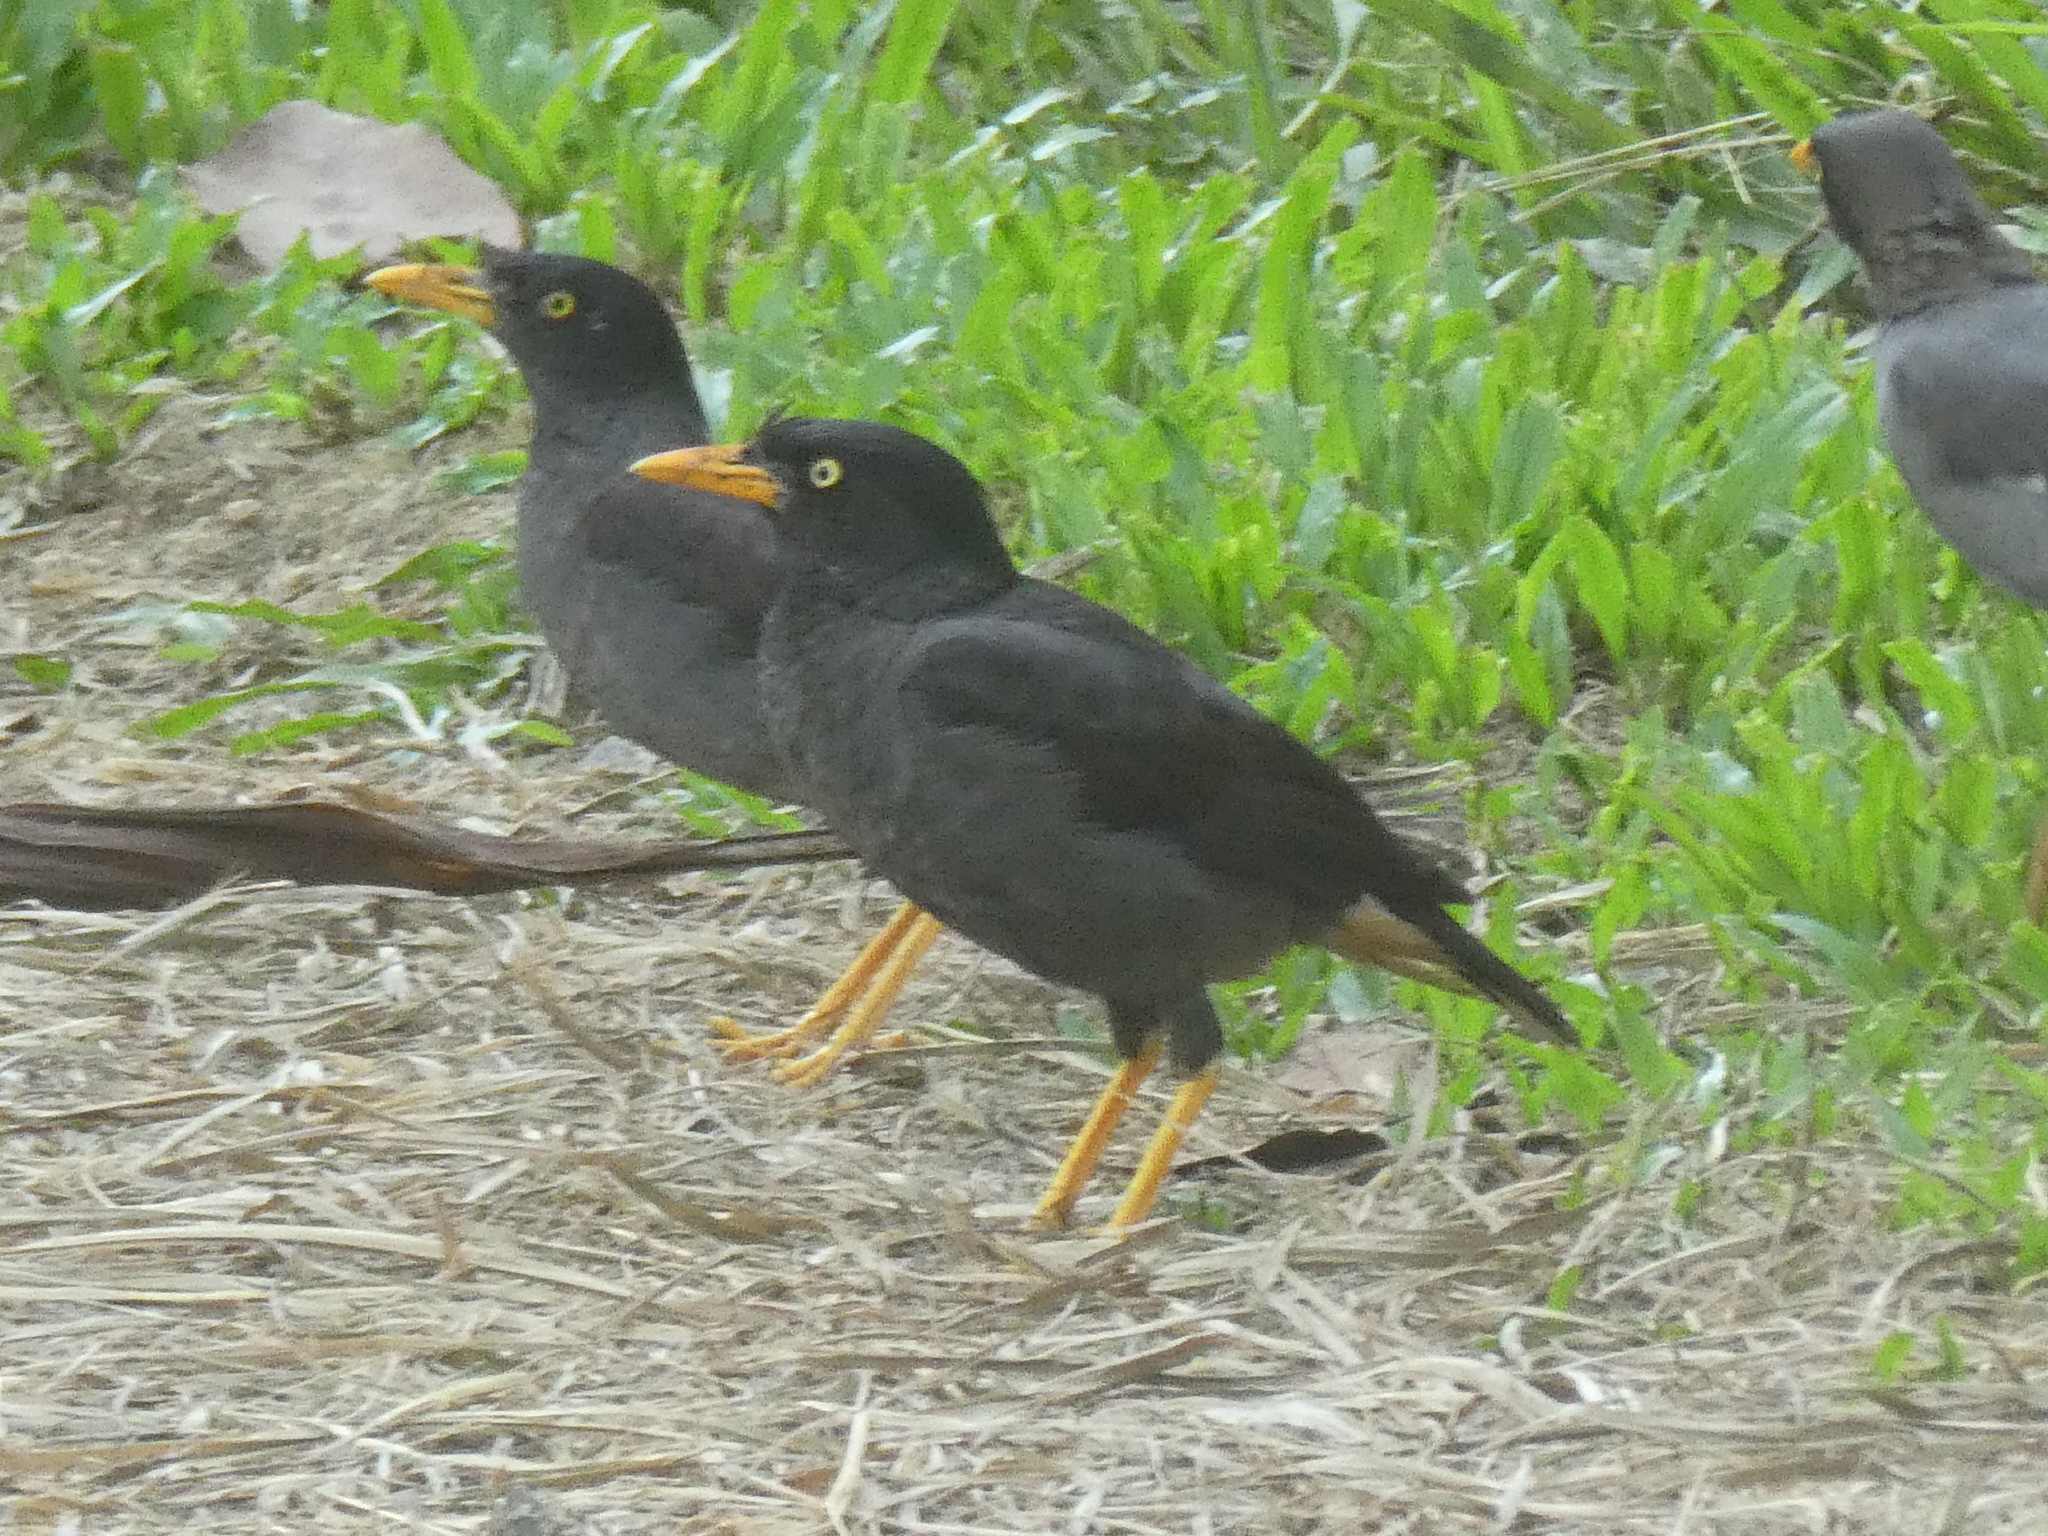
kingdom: Animalia
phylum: Chordata
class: Aves
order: Passeriformes
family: Sturnidae
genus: Acridotheres
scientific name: Acridotheres javanicus
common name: Javan myna
